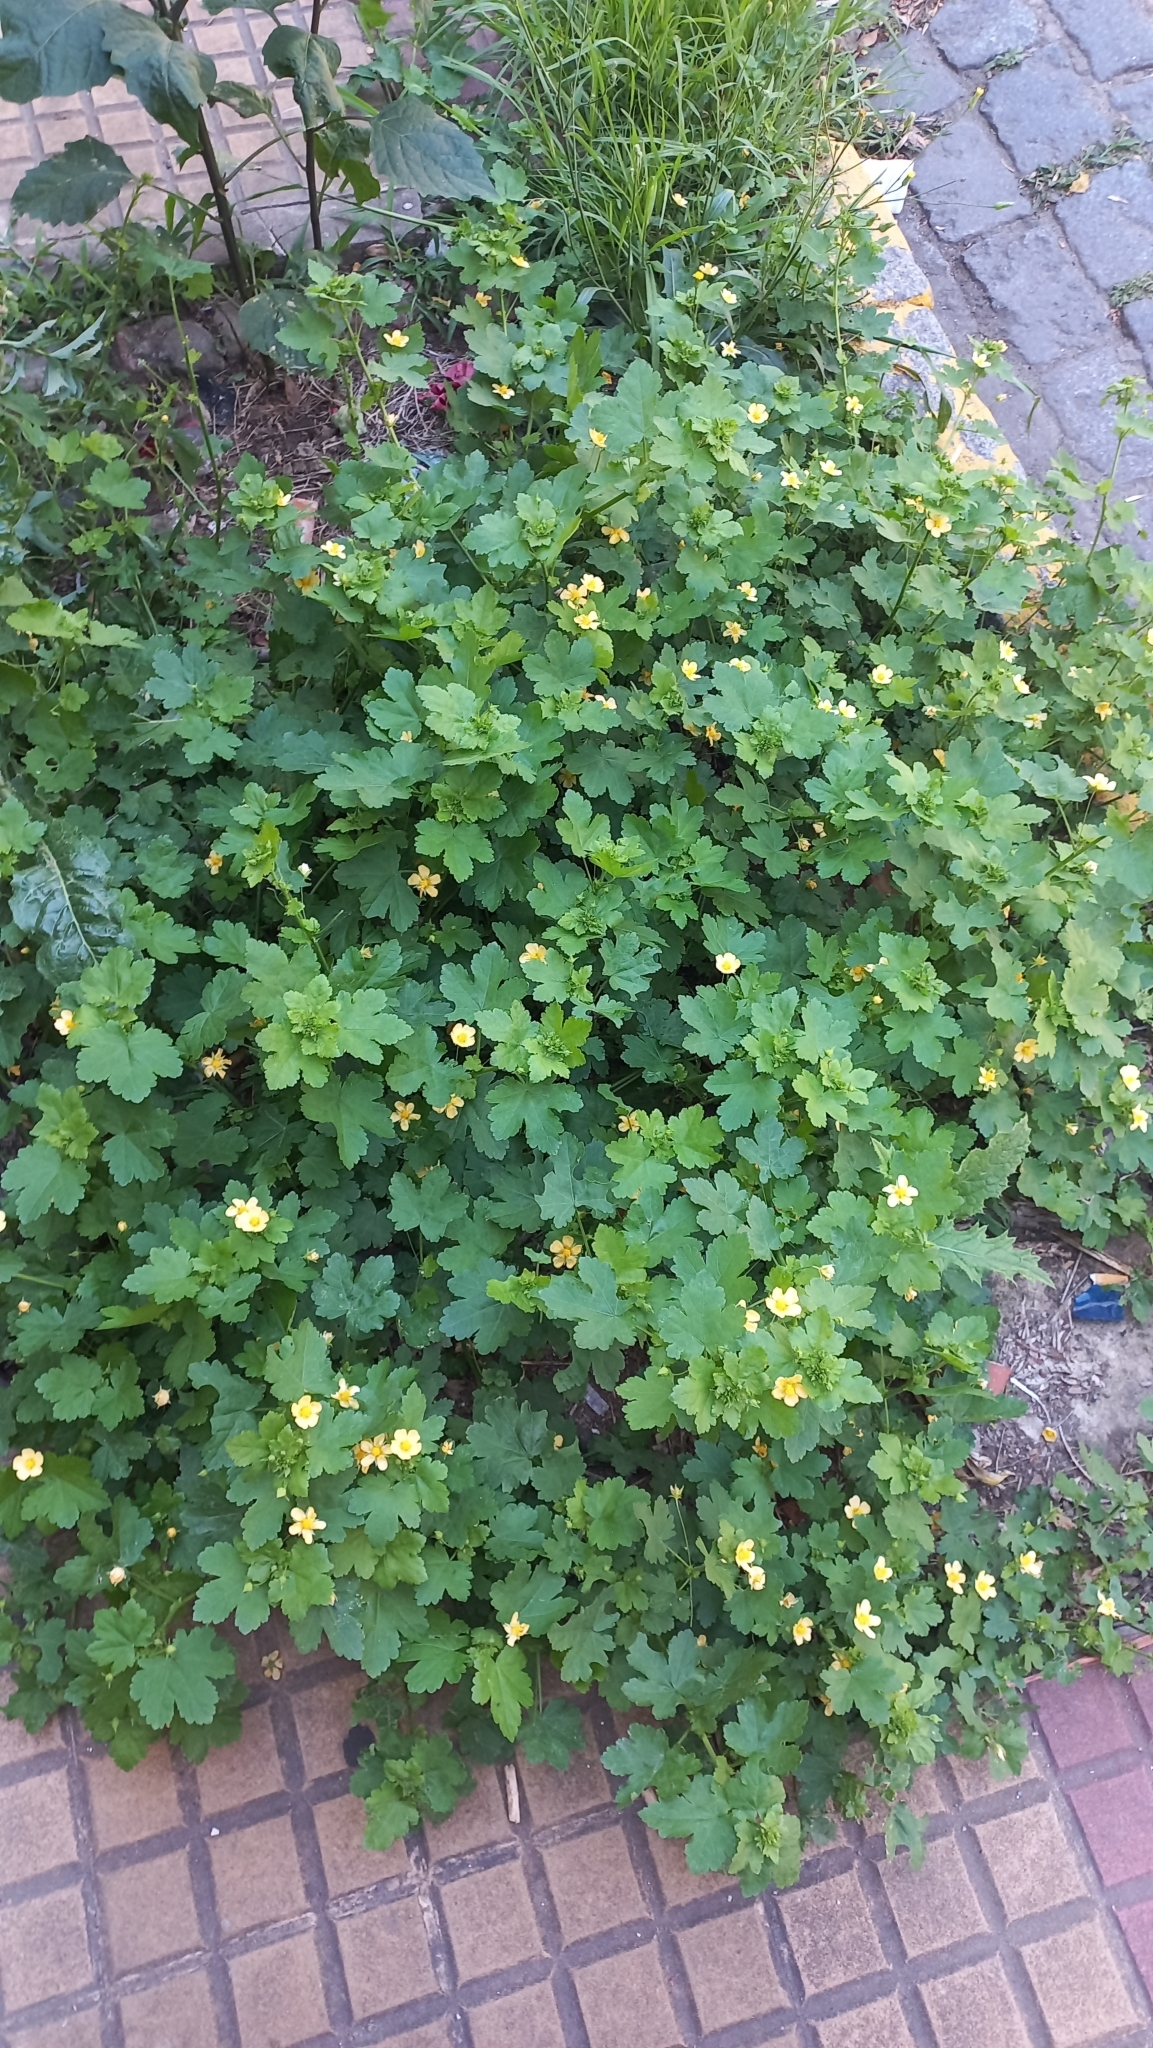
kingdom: Plantae
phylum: Tracheophyta
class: Magnoliopsida
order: Malvales
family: Malvaceae
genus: Modiolastrum
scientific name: Modiolastrum malvifolium
